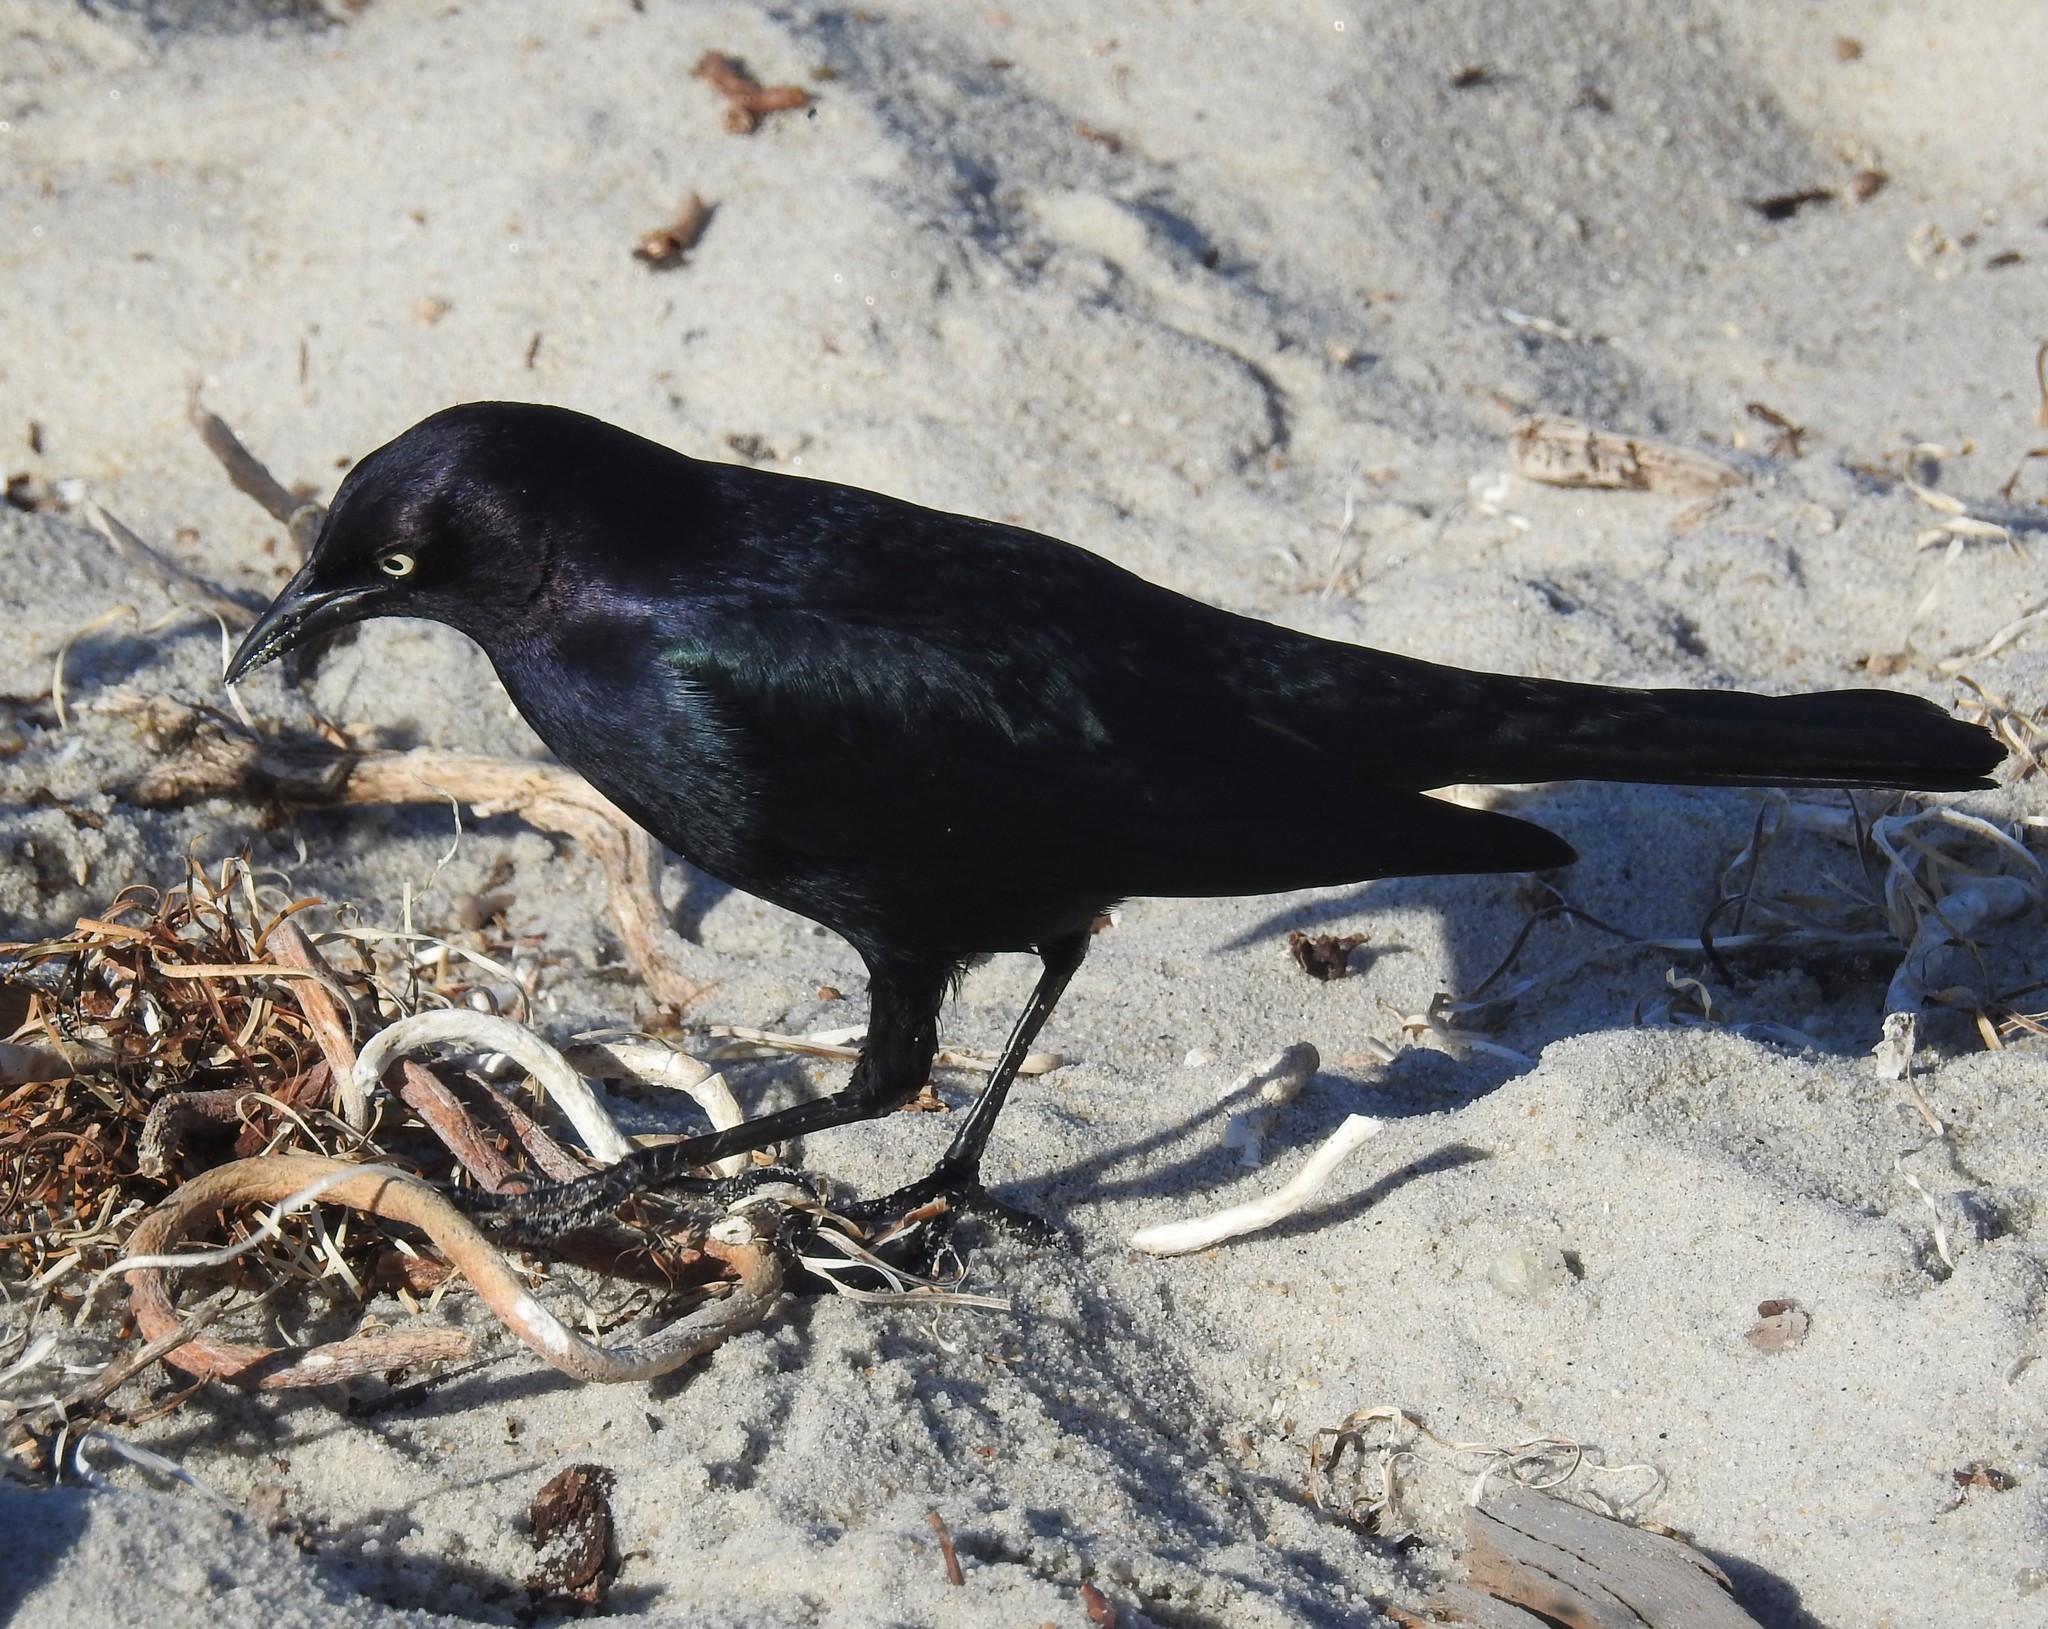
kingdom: Animalia
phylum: Chordata
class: Aves
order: Passeriformes
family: Icteridae
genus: Euphagus
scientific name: Euphagus cyanocephalus
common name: Brewer's blackbird
